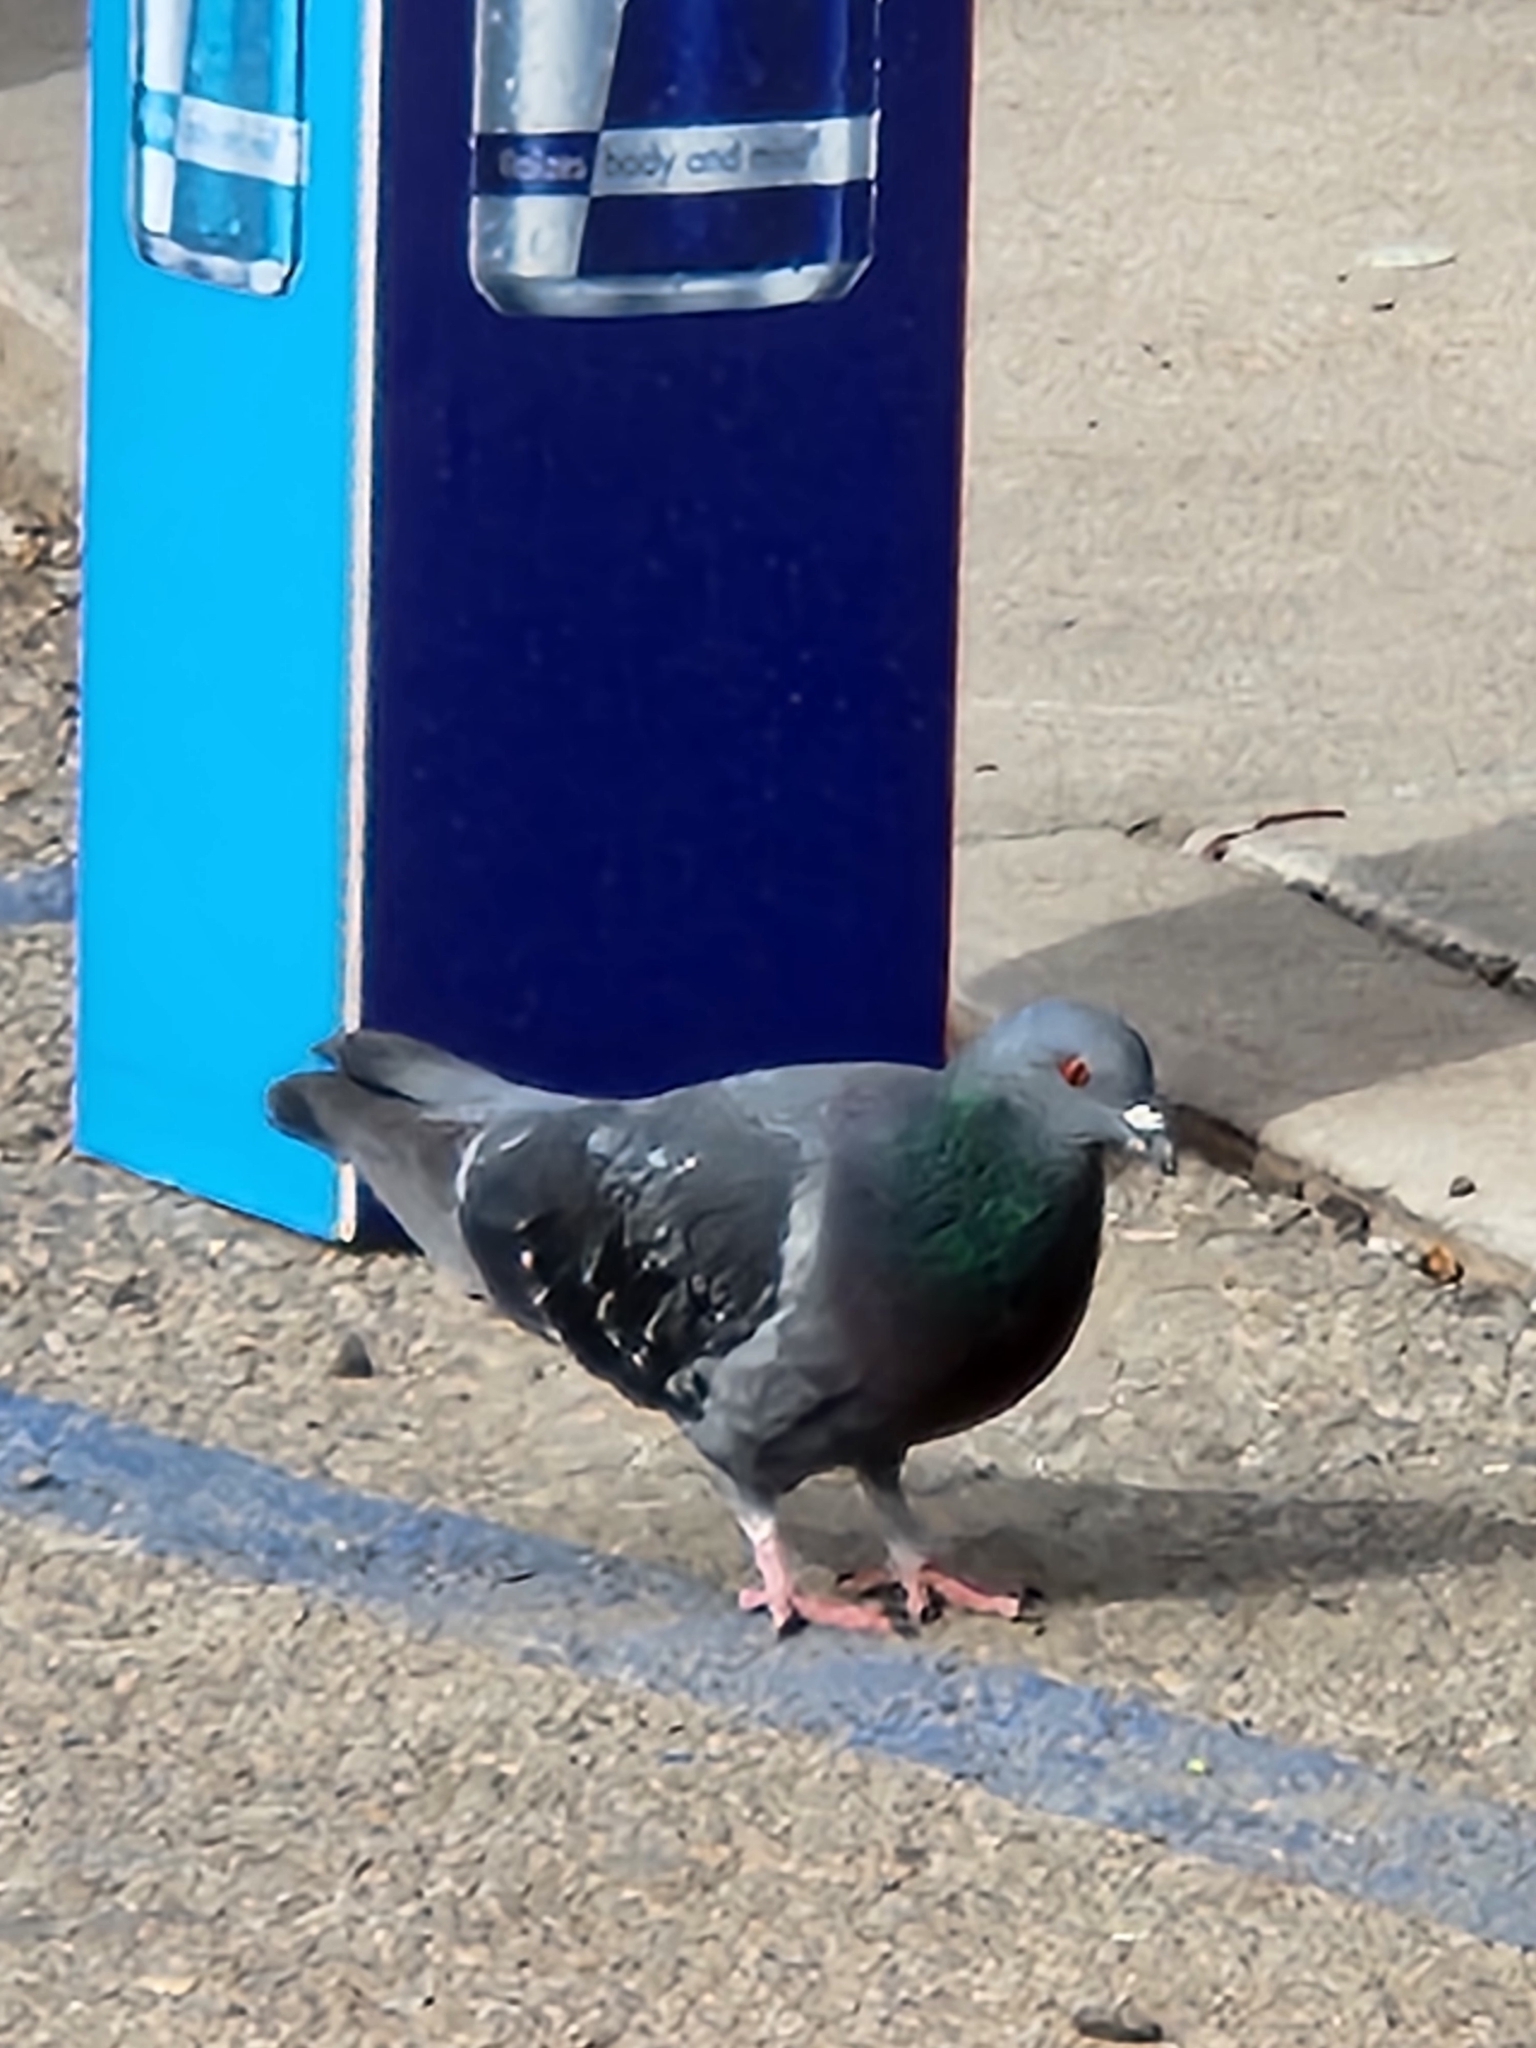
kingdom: Animalia
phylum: Chordata
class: Aves
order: Columbiformes
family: Columbidae
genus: Columba
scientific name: Columba livia
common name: Rock pigeon
